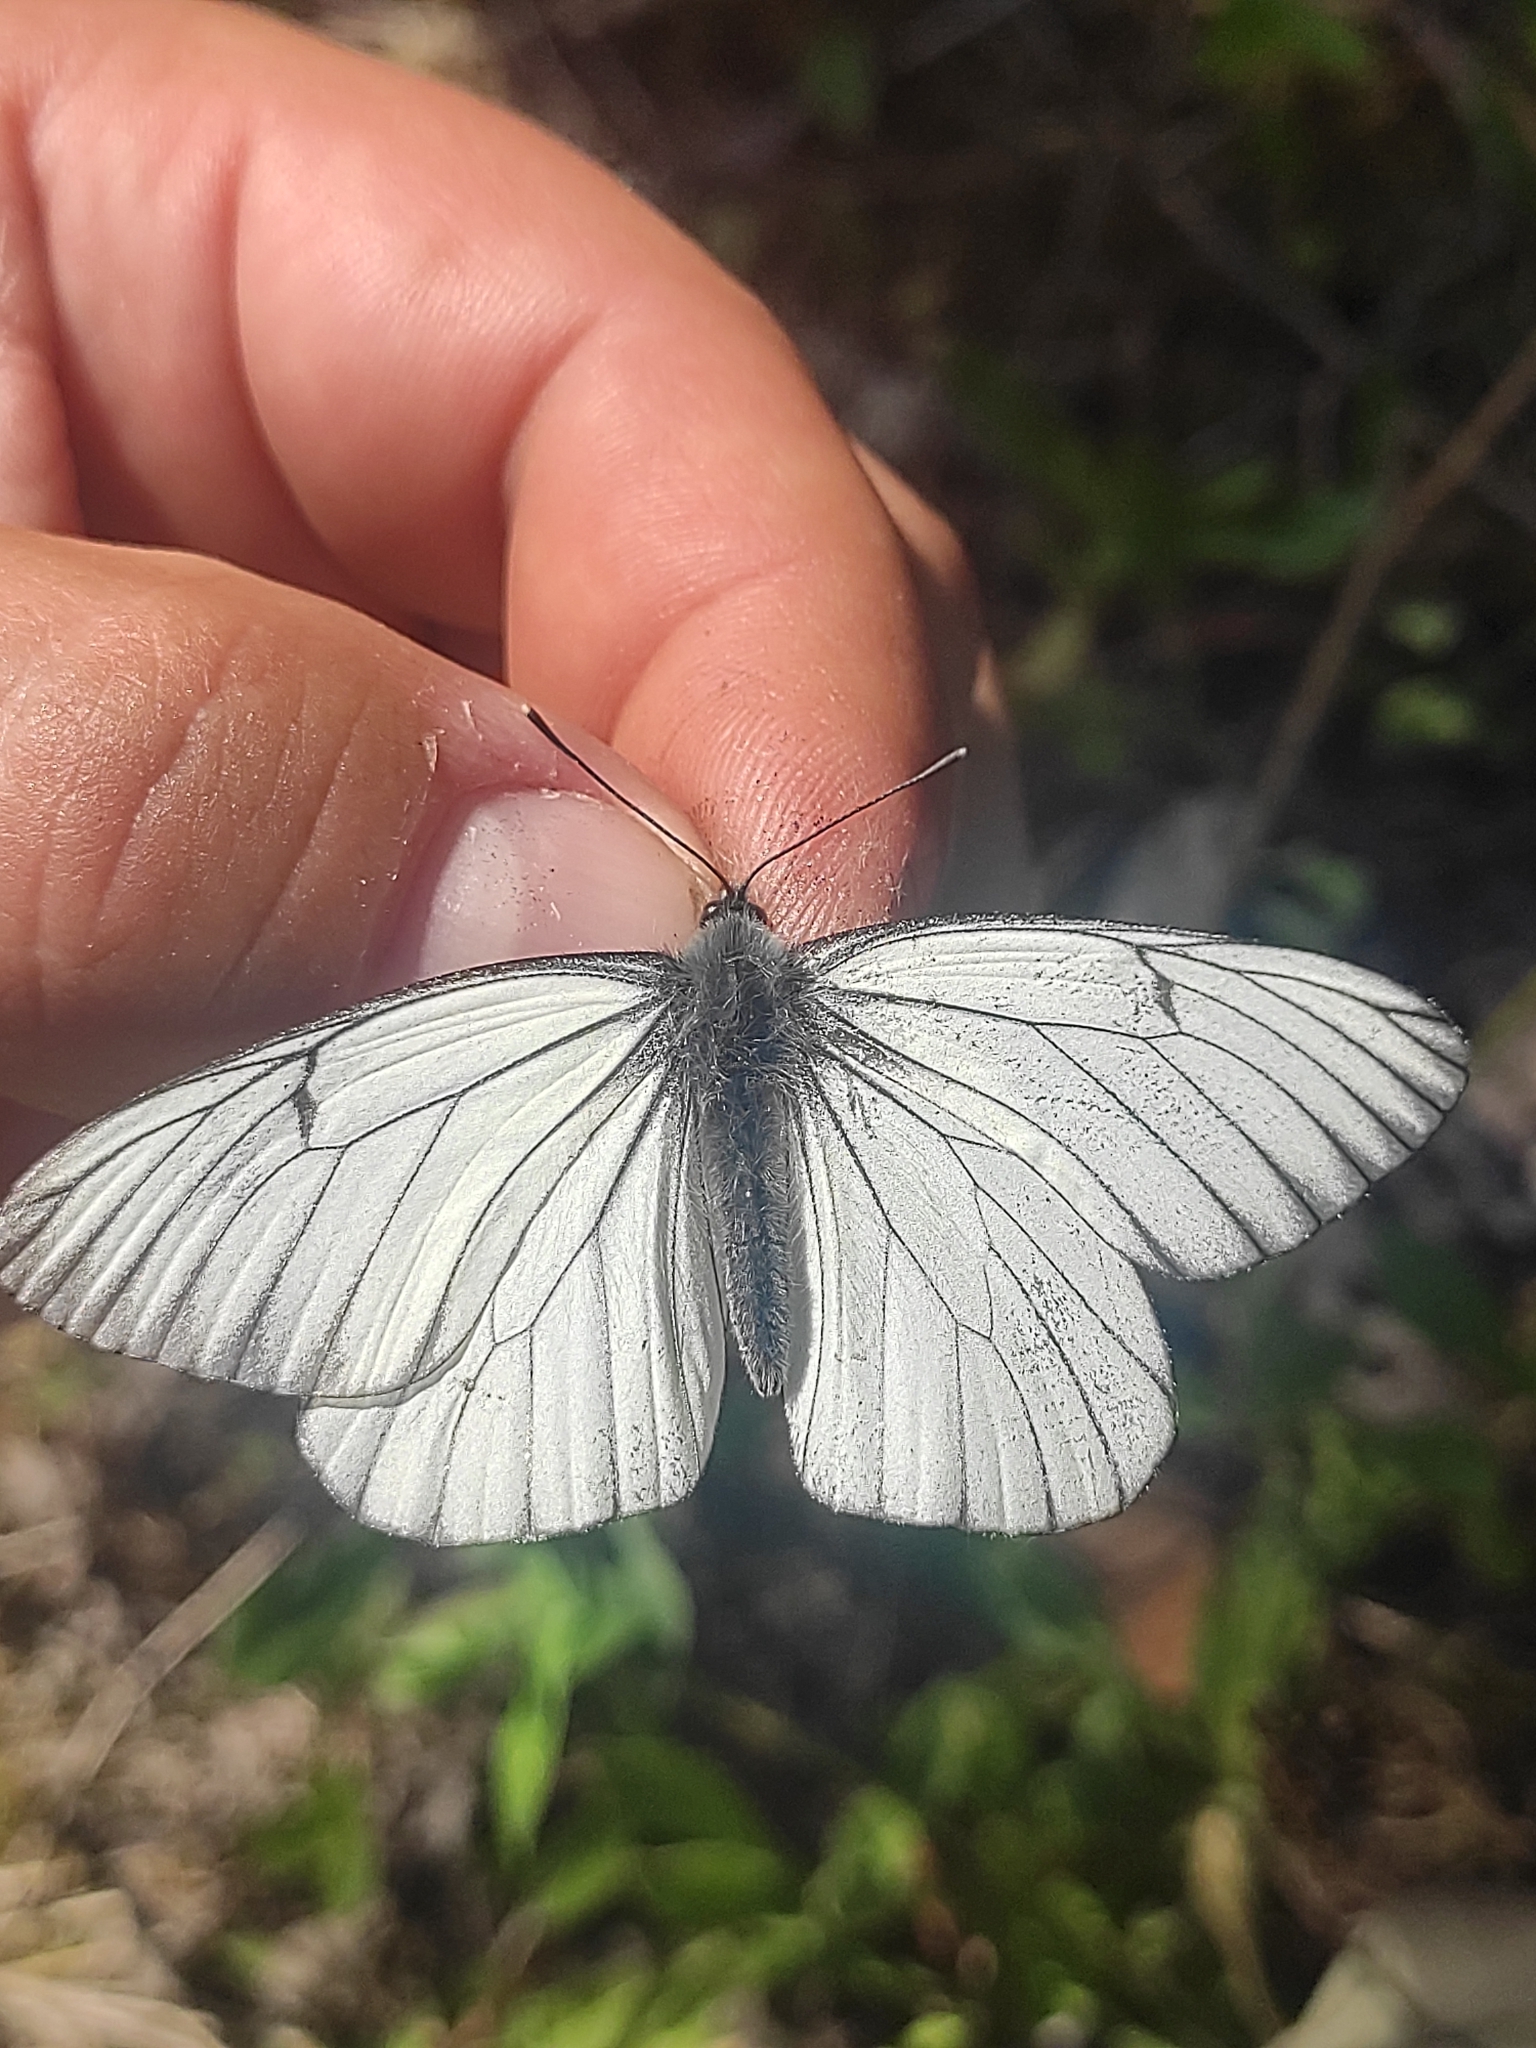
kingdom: Animalia
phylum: Arthropoda
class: Insecta
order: Lepidoptera
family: Pieridae
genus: Aporia
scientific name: Aporia crataegi
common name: Black-veined white
